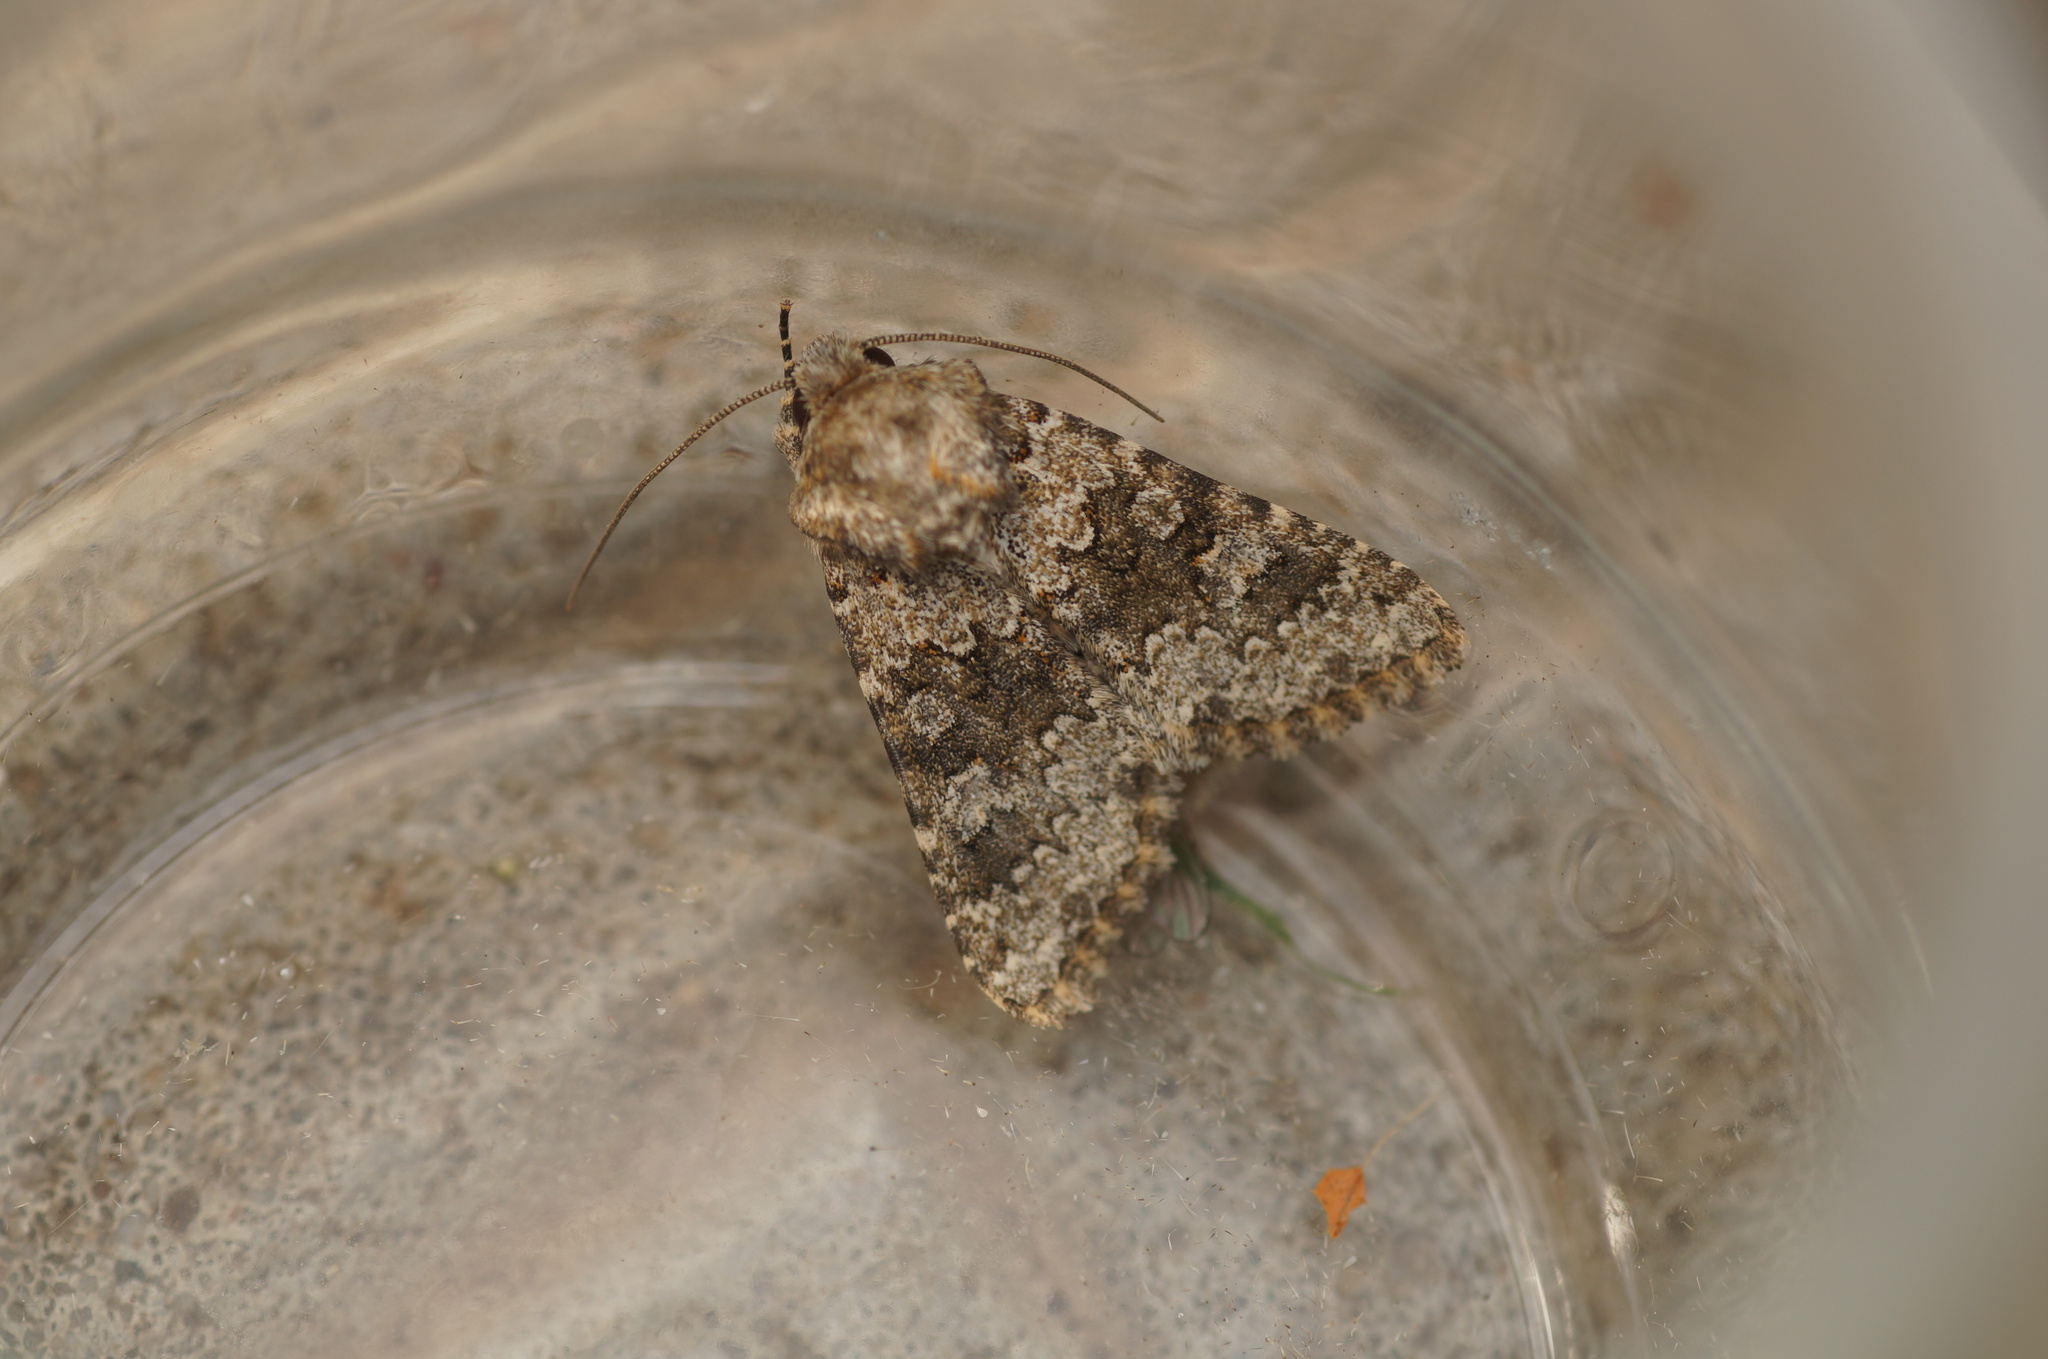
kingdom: Animalia
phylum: Arthropoda
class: Insecta
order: Lepidoptera
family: Noctuidae
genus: Hecatera
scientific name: Hecatera dysodea
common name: Small ranunculus
